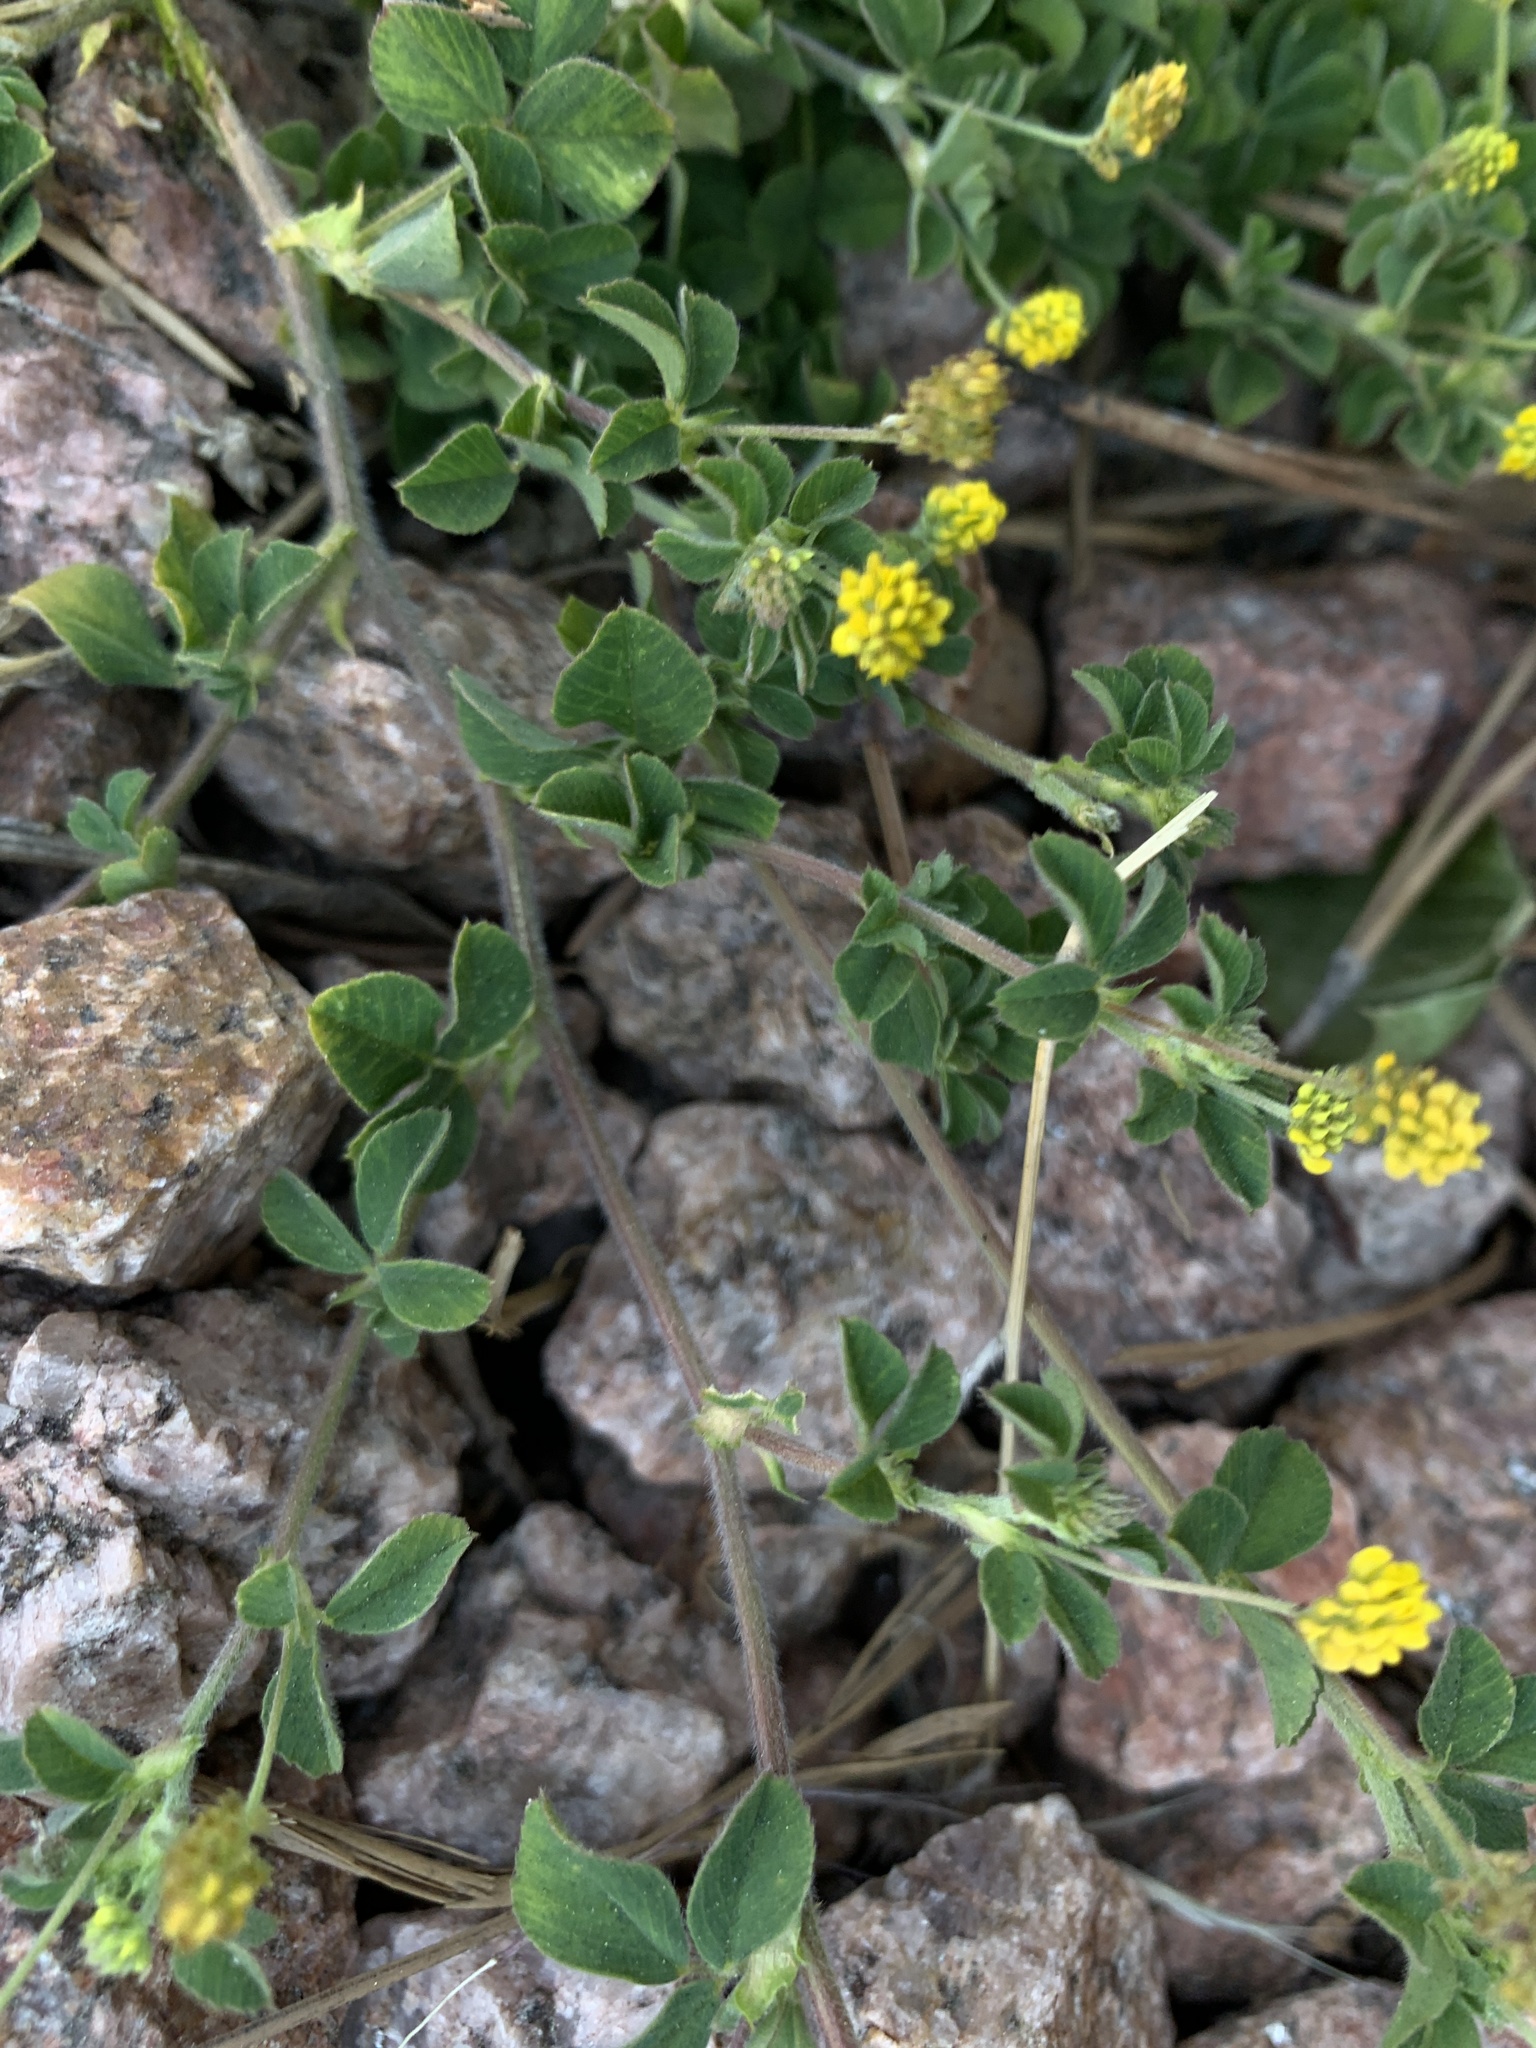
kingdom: Plantae
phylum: Tracheophyta
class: Magnoliopsida
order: Fabales
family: Fabaceae
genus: Medicago
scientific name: Medicago lupulina
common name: Black medick
